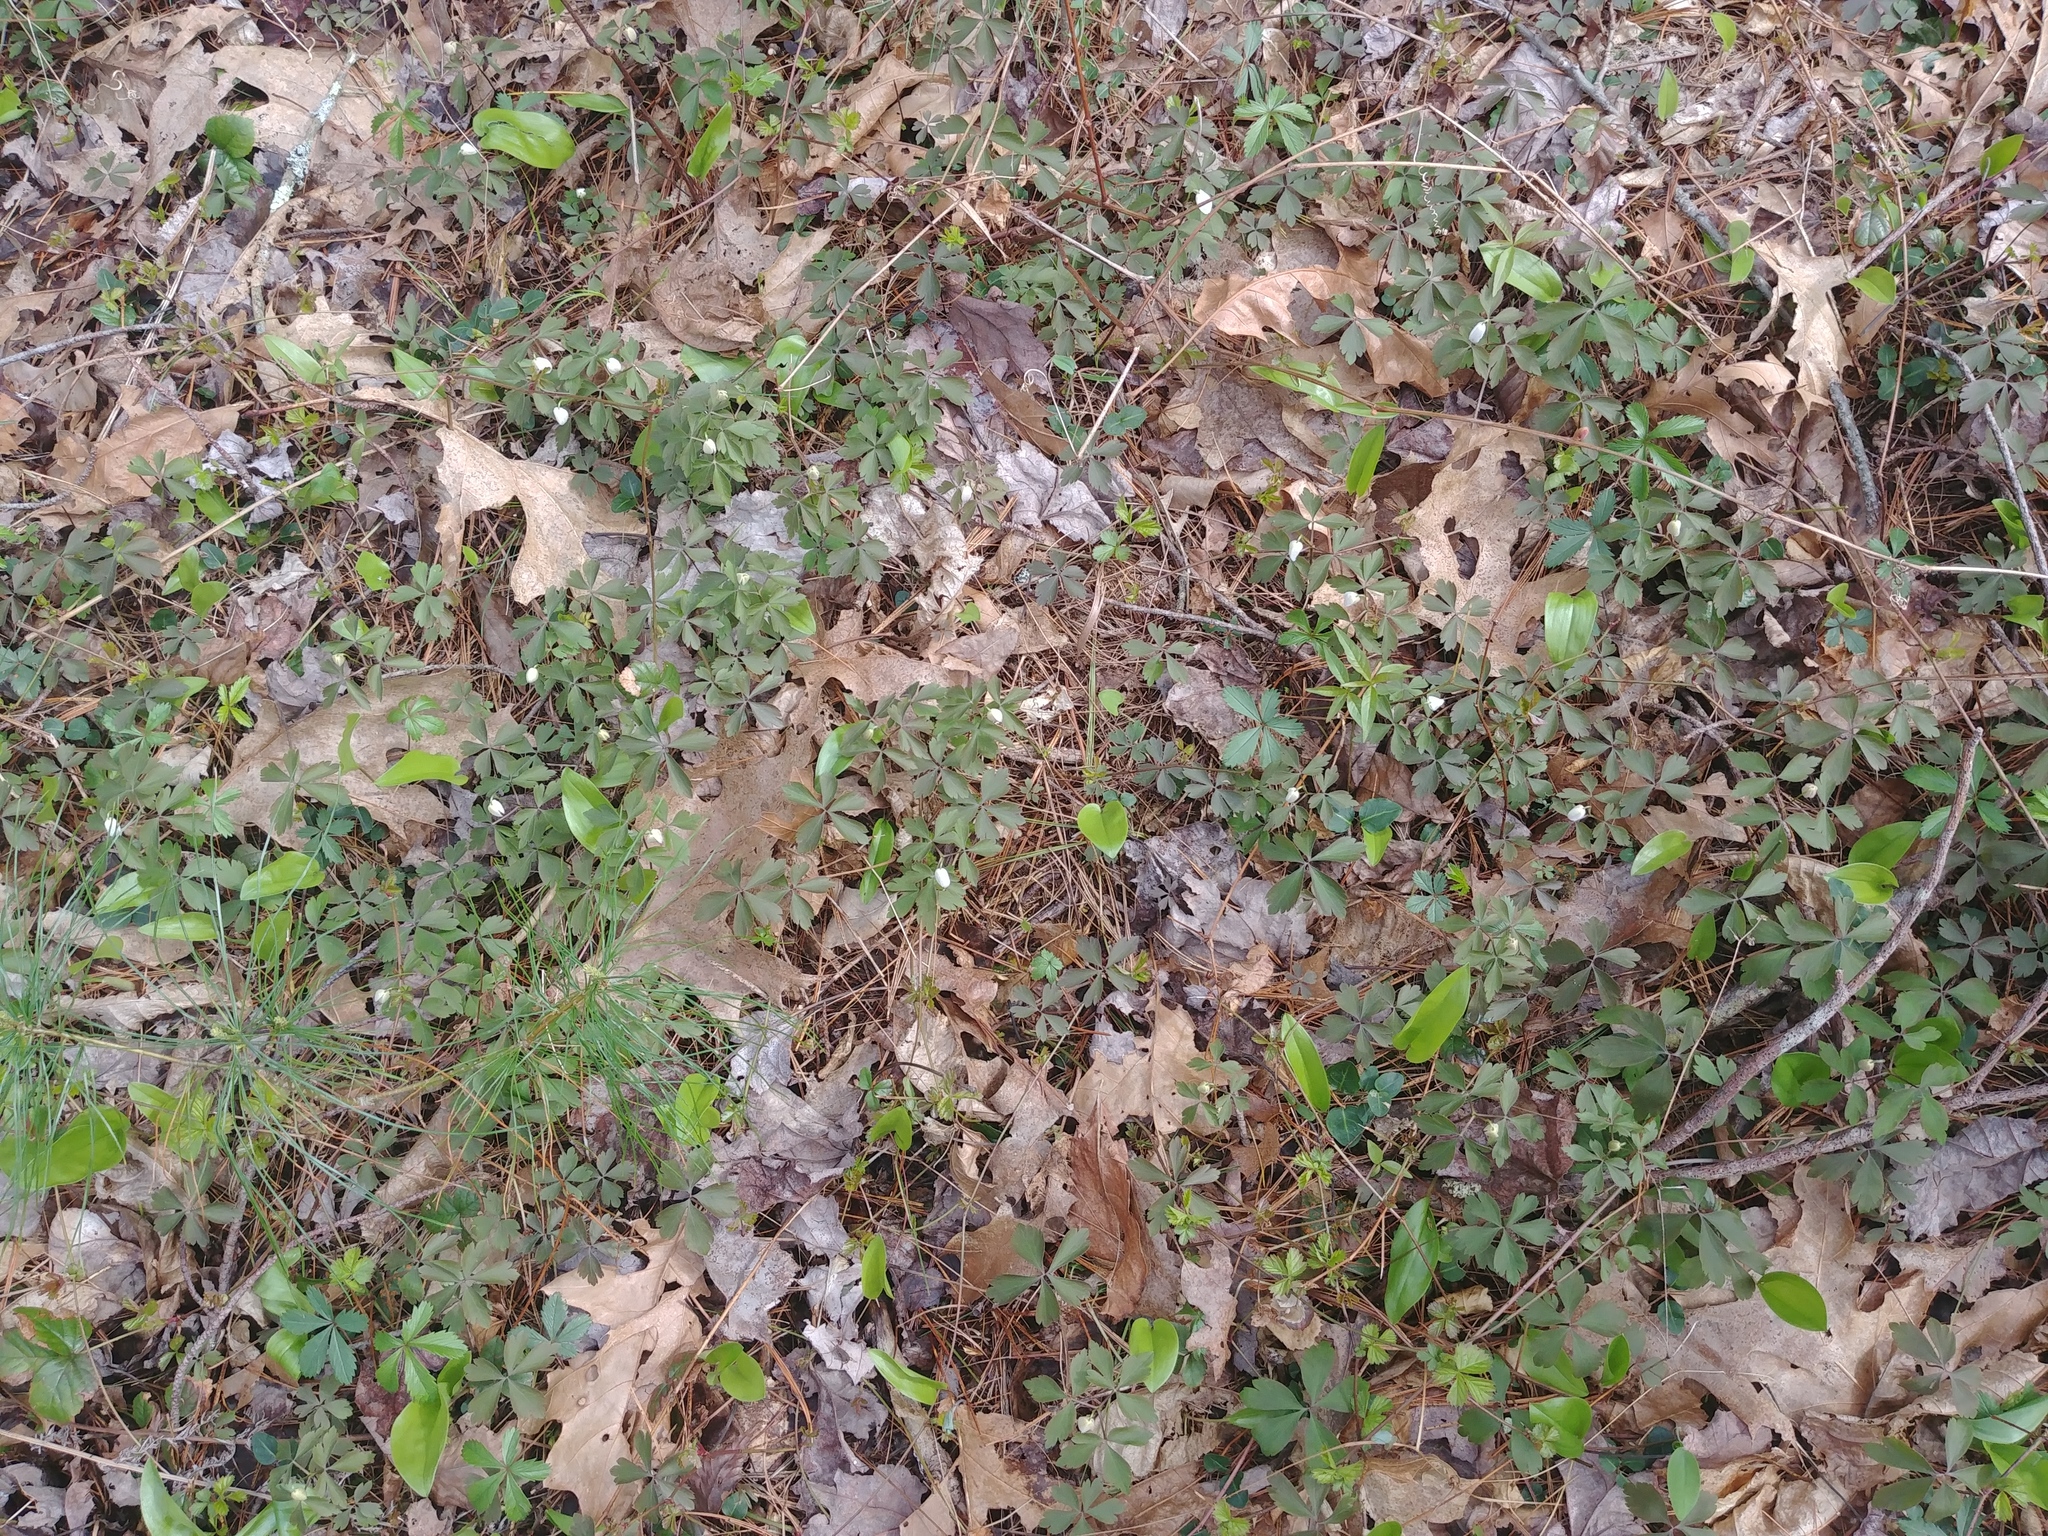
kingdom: Plantae
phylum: Tracheophyta
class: Magnoliopsida
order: Ranunculales
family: Ranunculaceae
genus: Anemone
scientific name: Anemone quinquefolia
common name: Wood anemone
